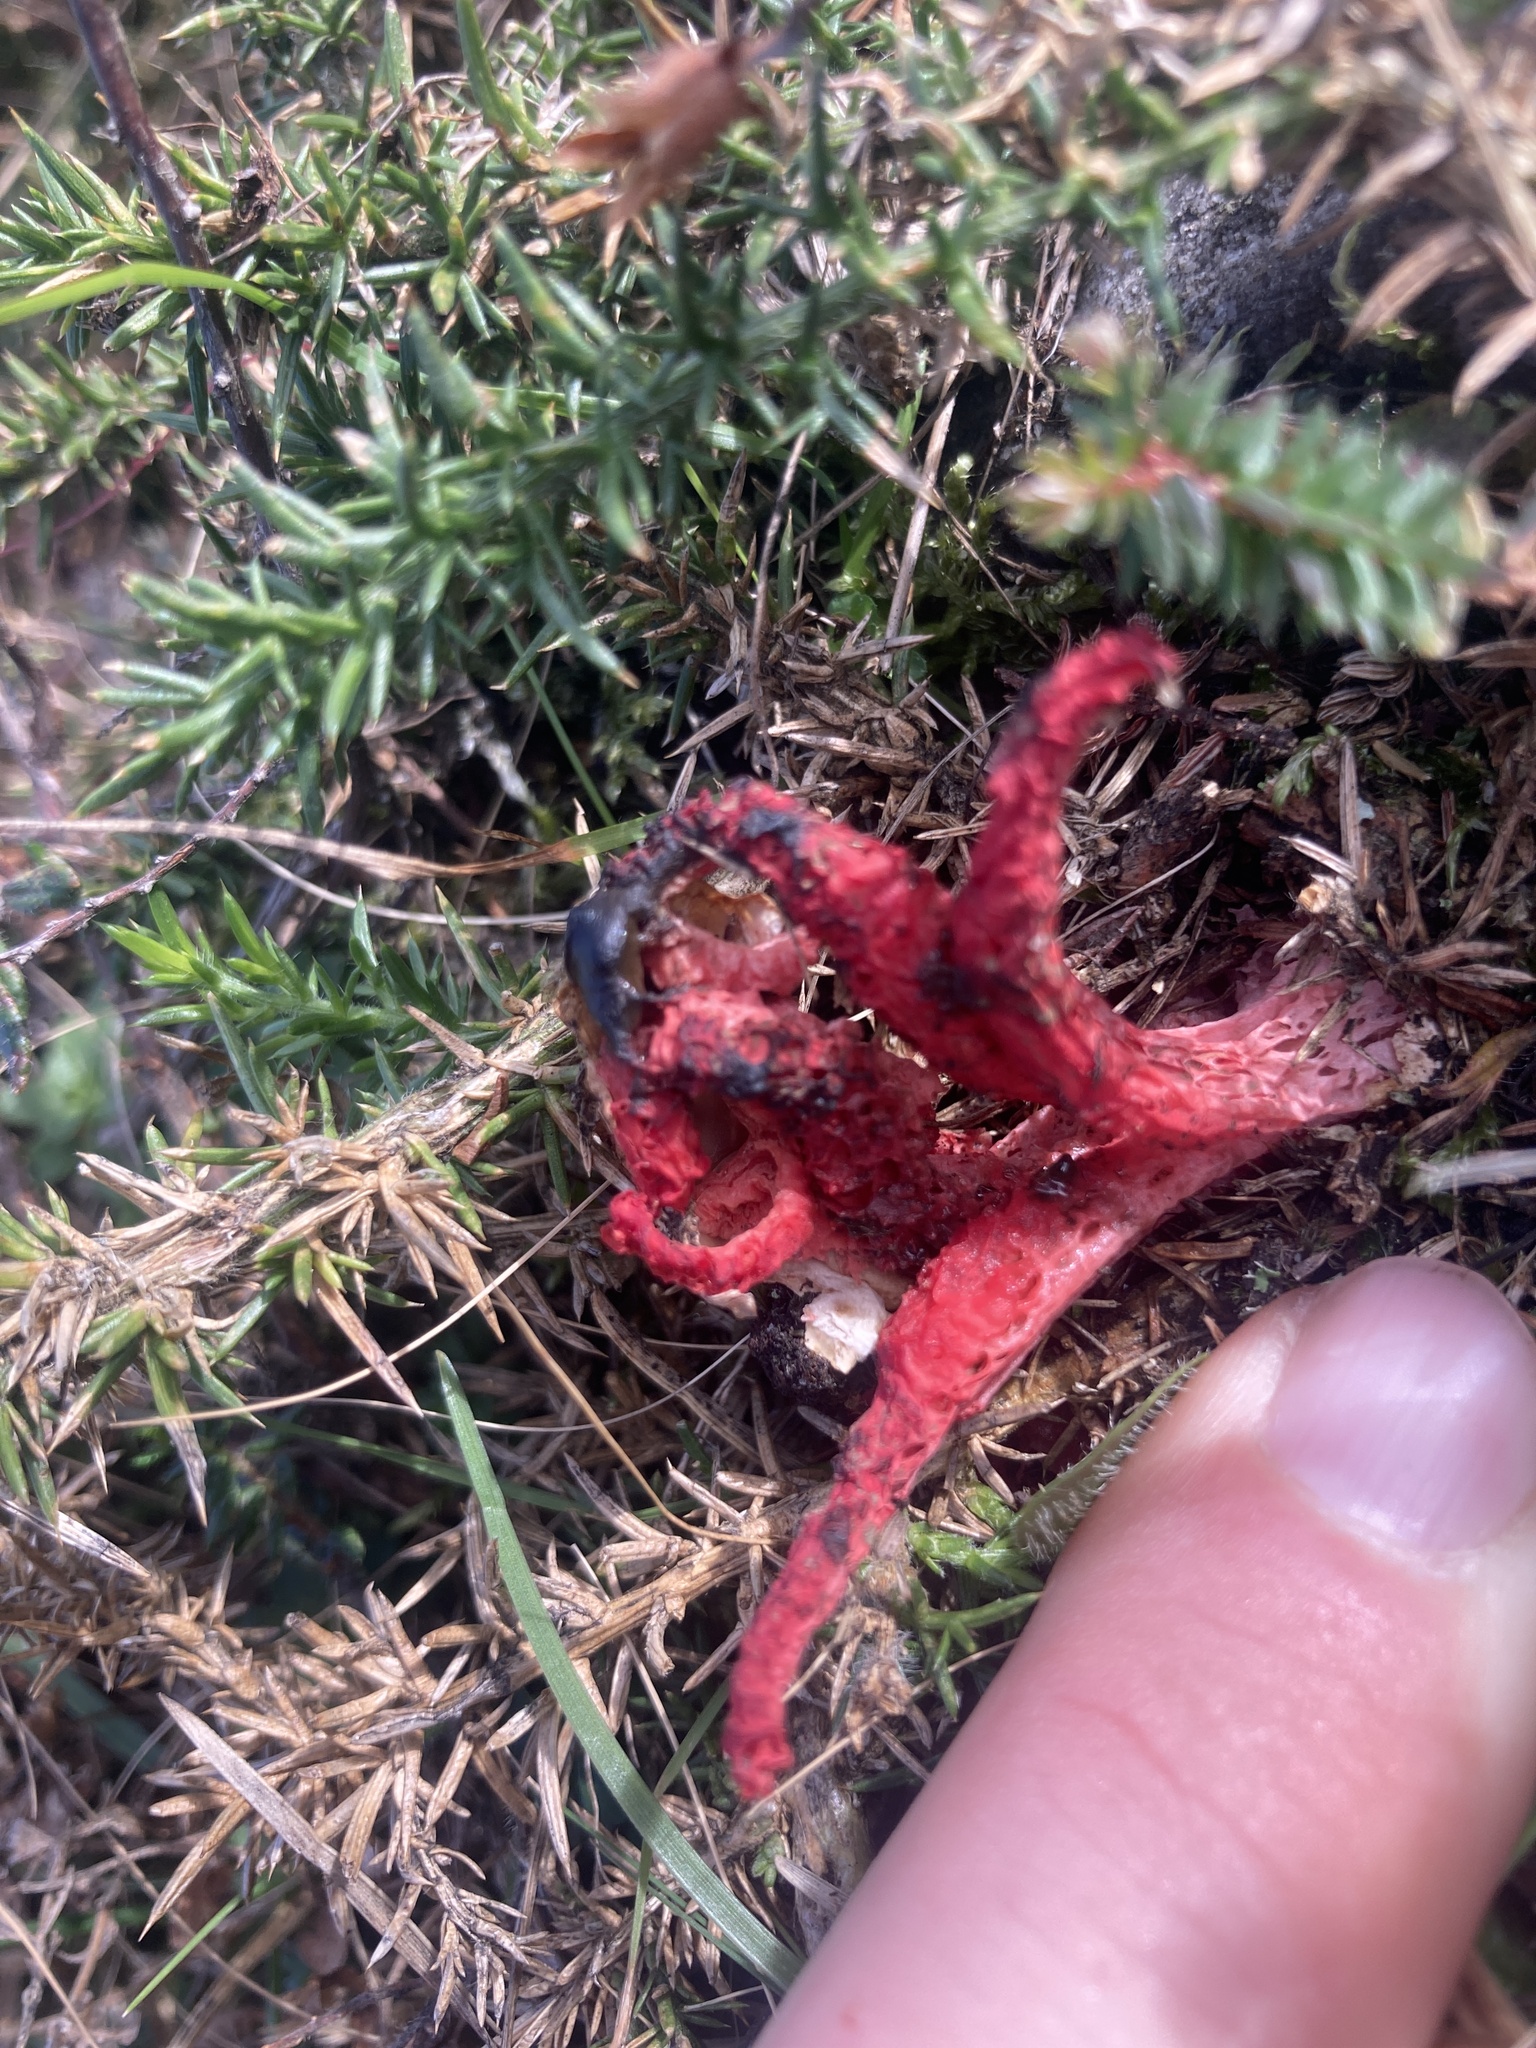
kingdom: Fungi
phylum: Basidiomycota
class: Agaricomycetes
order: Phallales
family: Phallaceae
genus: Clathrus
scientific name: Clathrus archeri
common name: Devil's fingers
